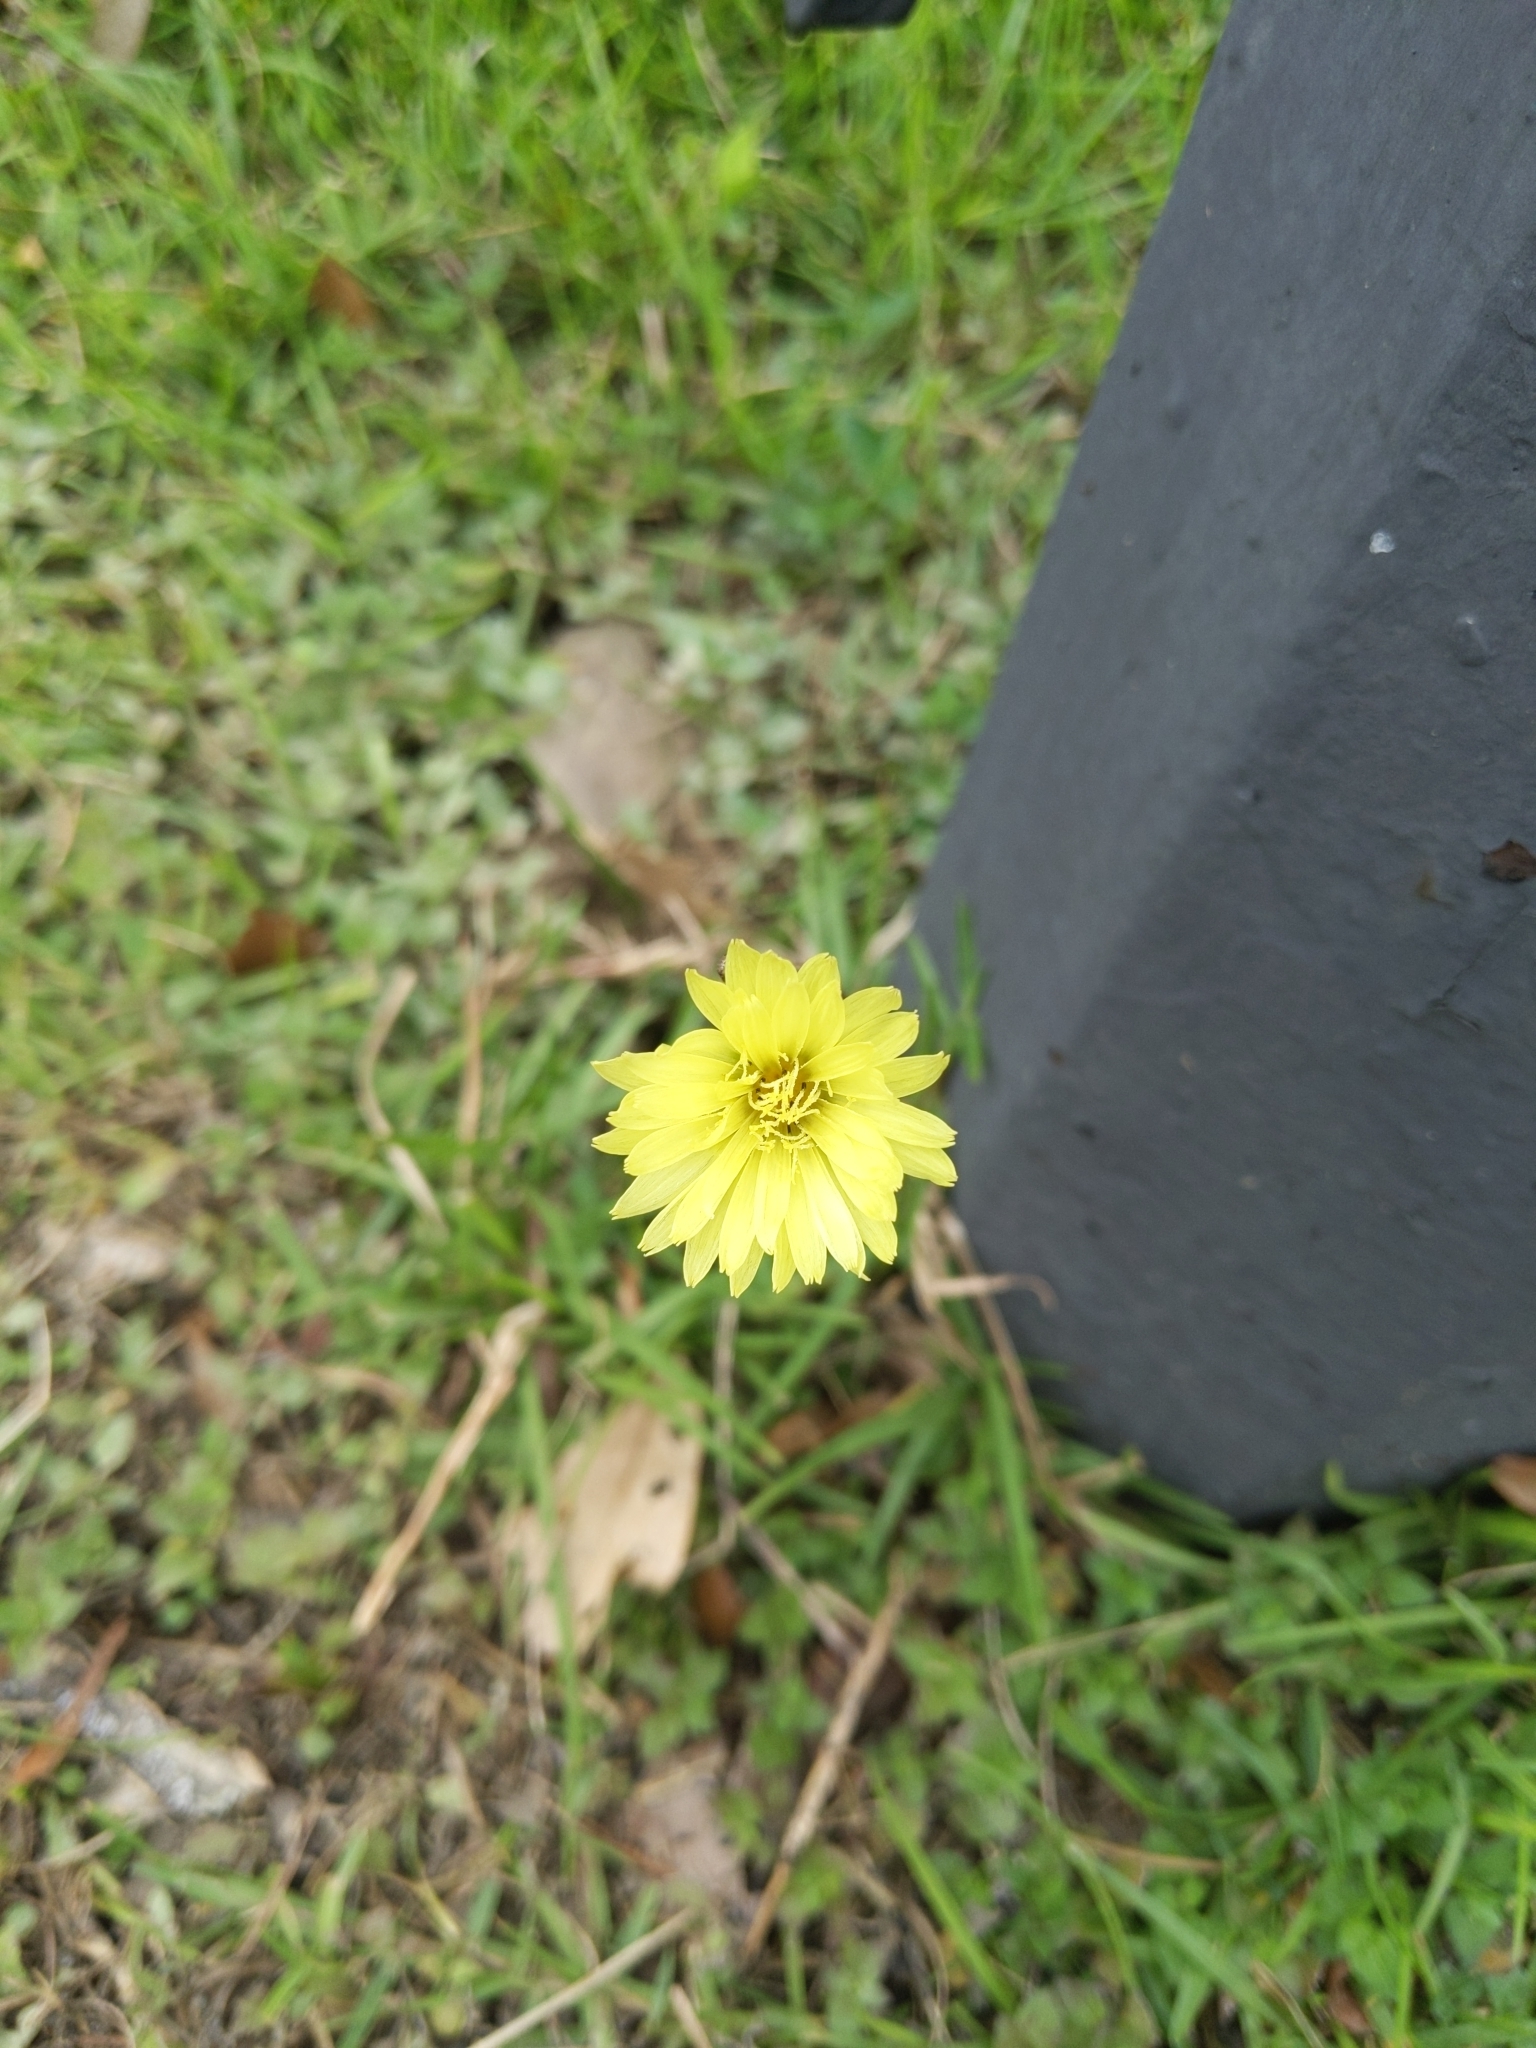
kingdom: Plantae
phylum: Tracheophyta
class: Magnoliopsida
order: Asterales
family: Asteraceae
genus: Pyrrhopappus
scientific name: Pyrrhopappus carolinianus
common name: Carolina desert-chicory
